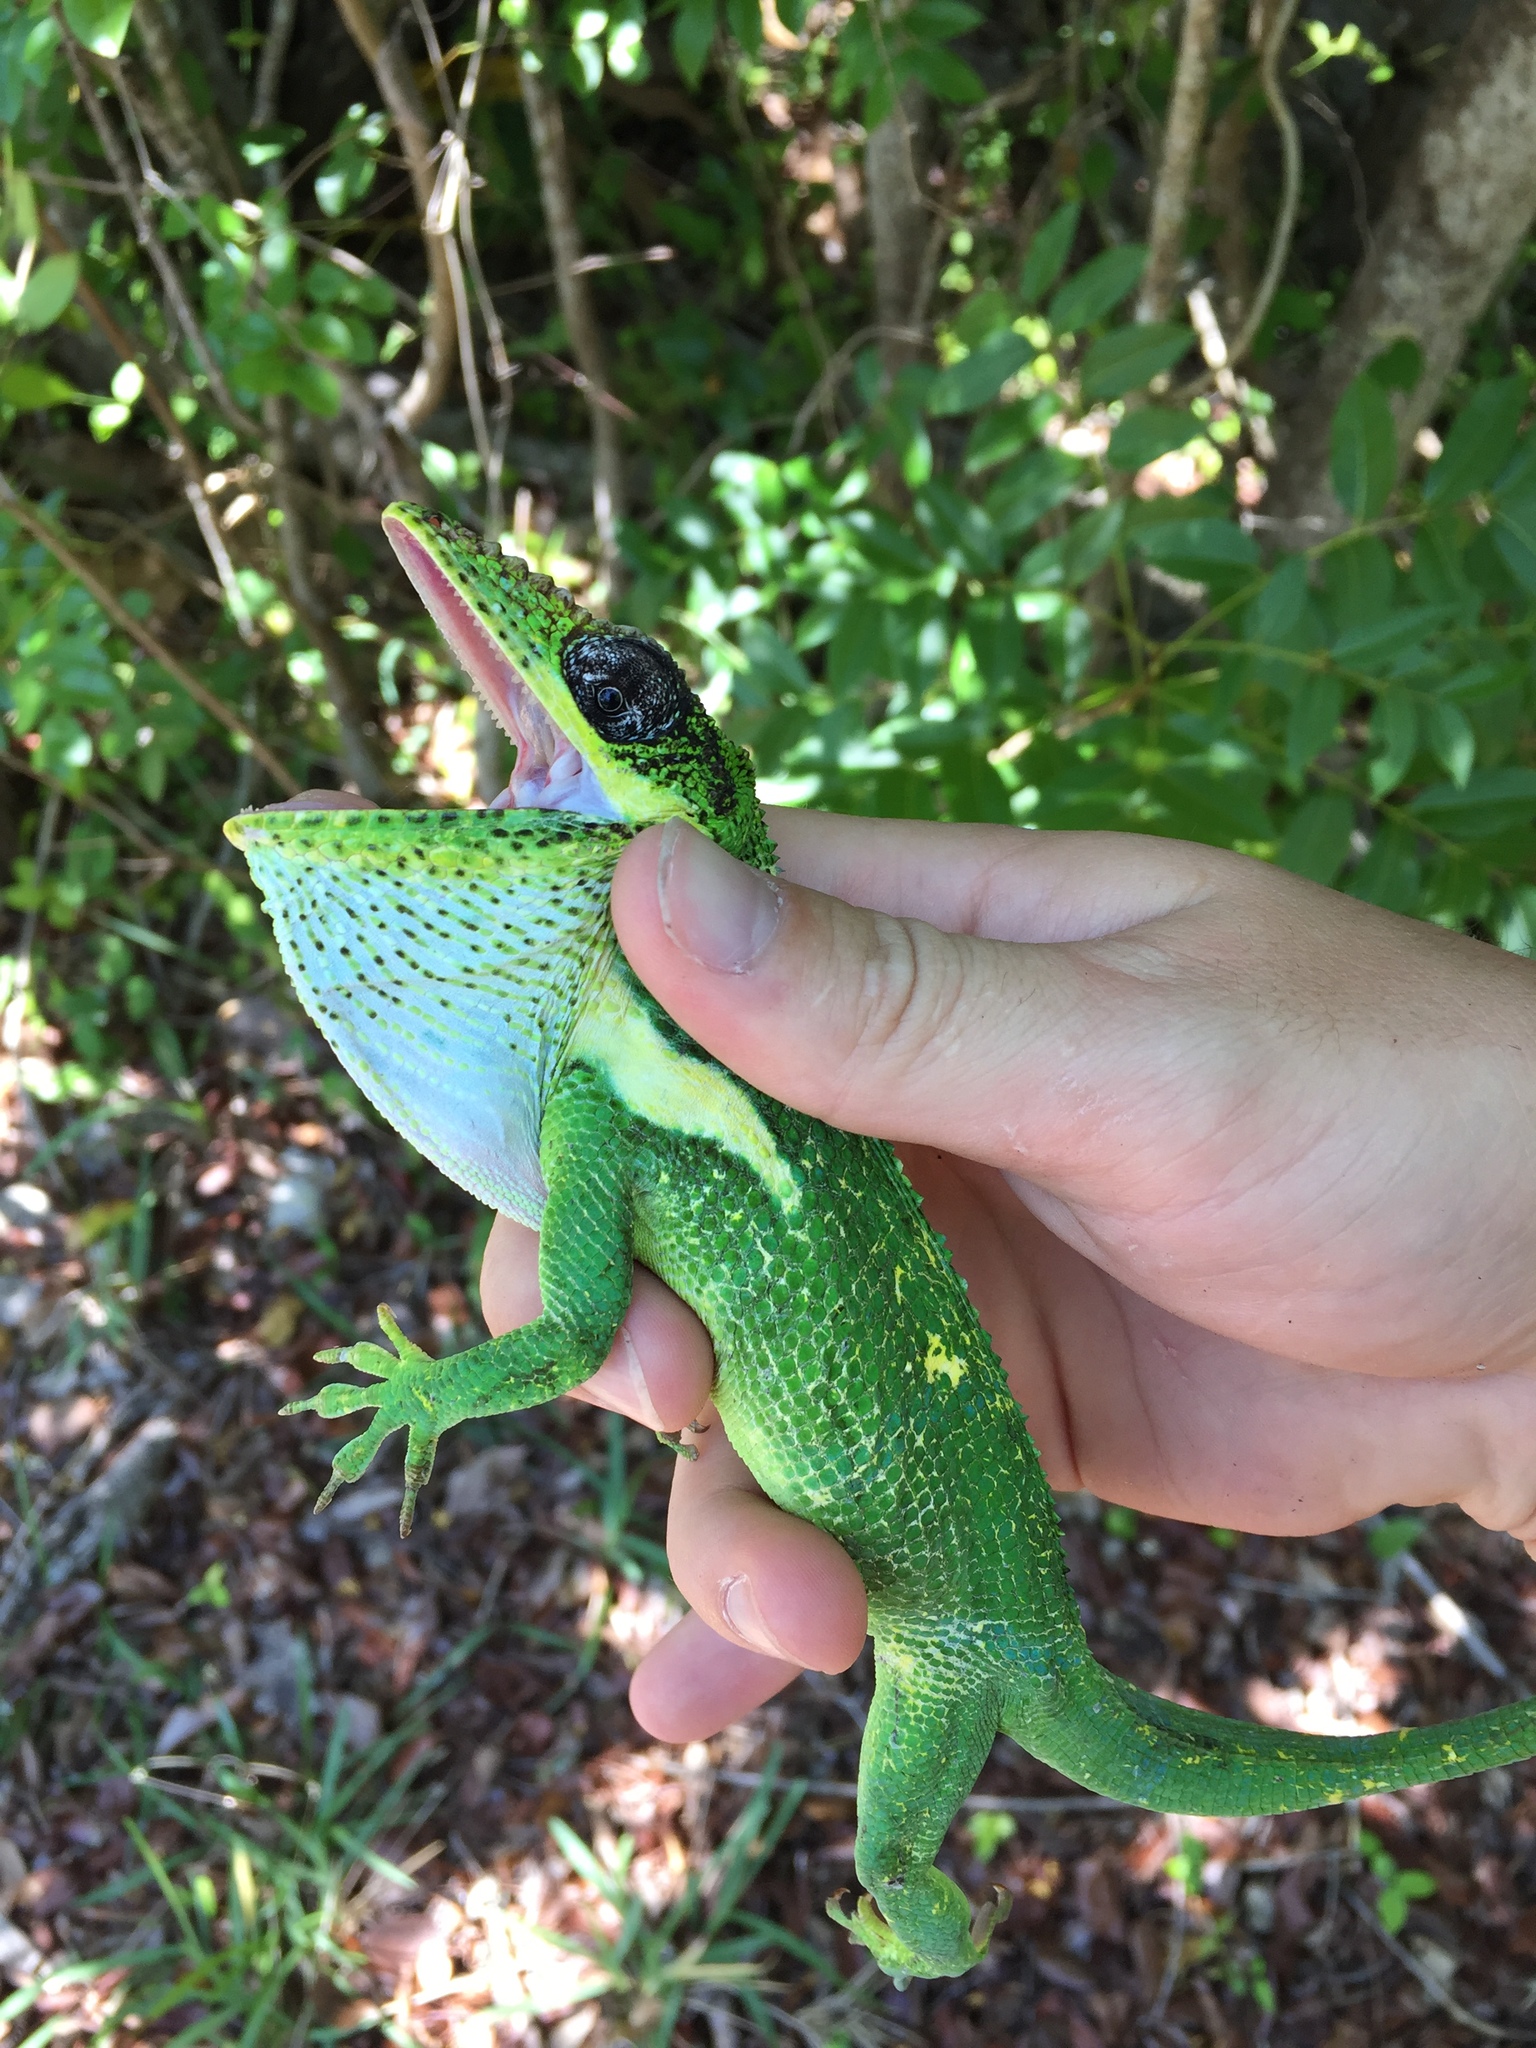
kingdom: Animalia
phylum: Chordata
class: Squamata
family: Dactyloidae
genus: Anolis
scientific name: Anolis equestris
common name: Knight anole
